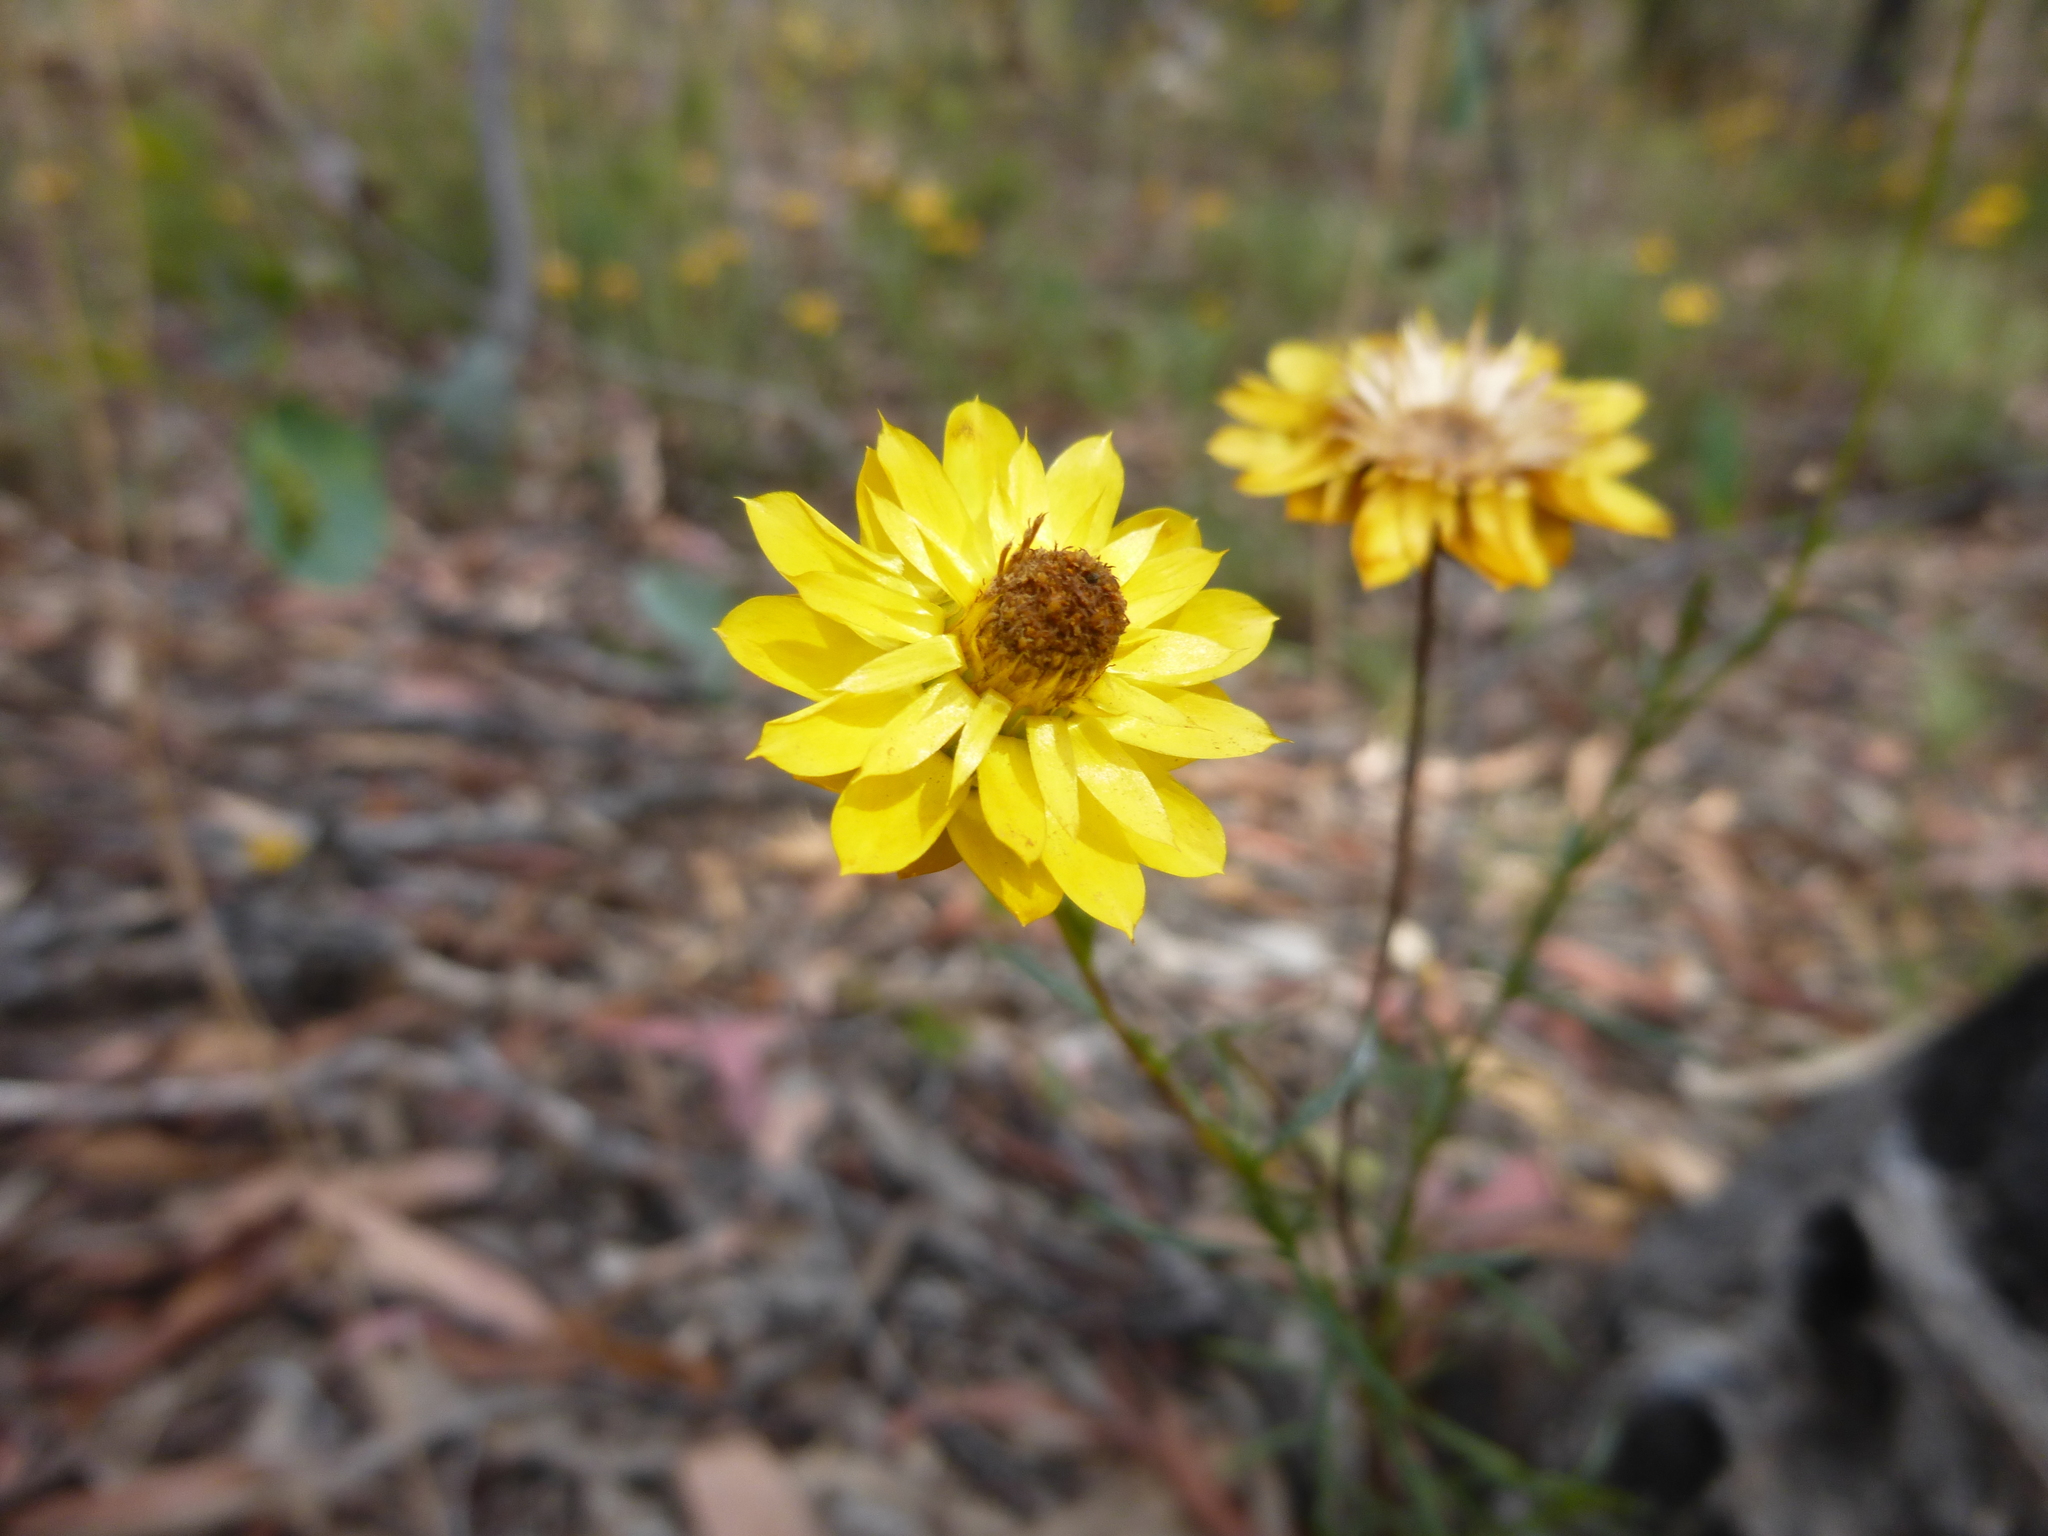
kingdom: Plantae
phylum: Tracheophyta
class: Magnoliopsida
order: Asterales
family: Asteraceae
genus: Xerochrysum
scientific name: Xerochrysum viscosum
